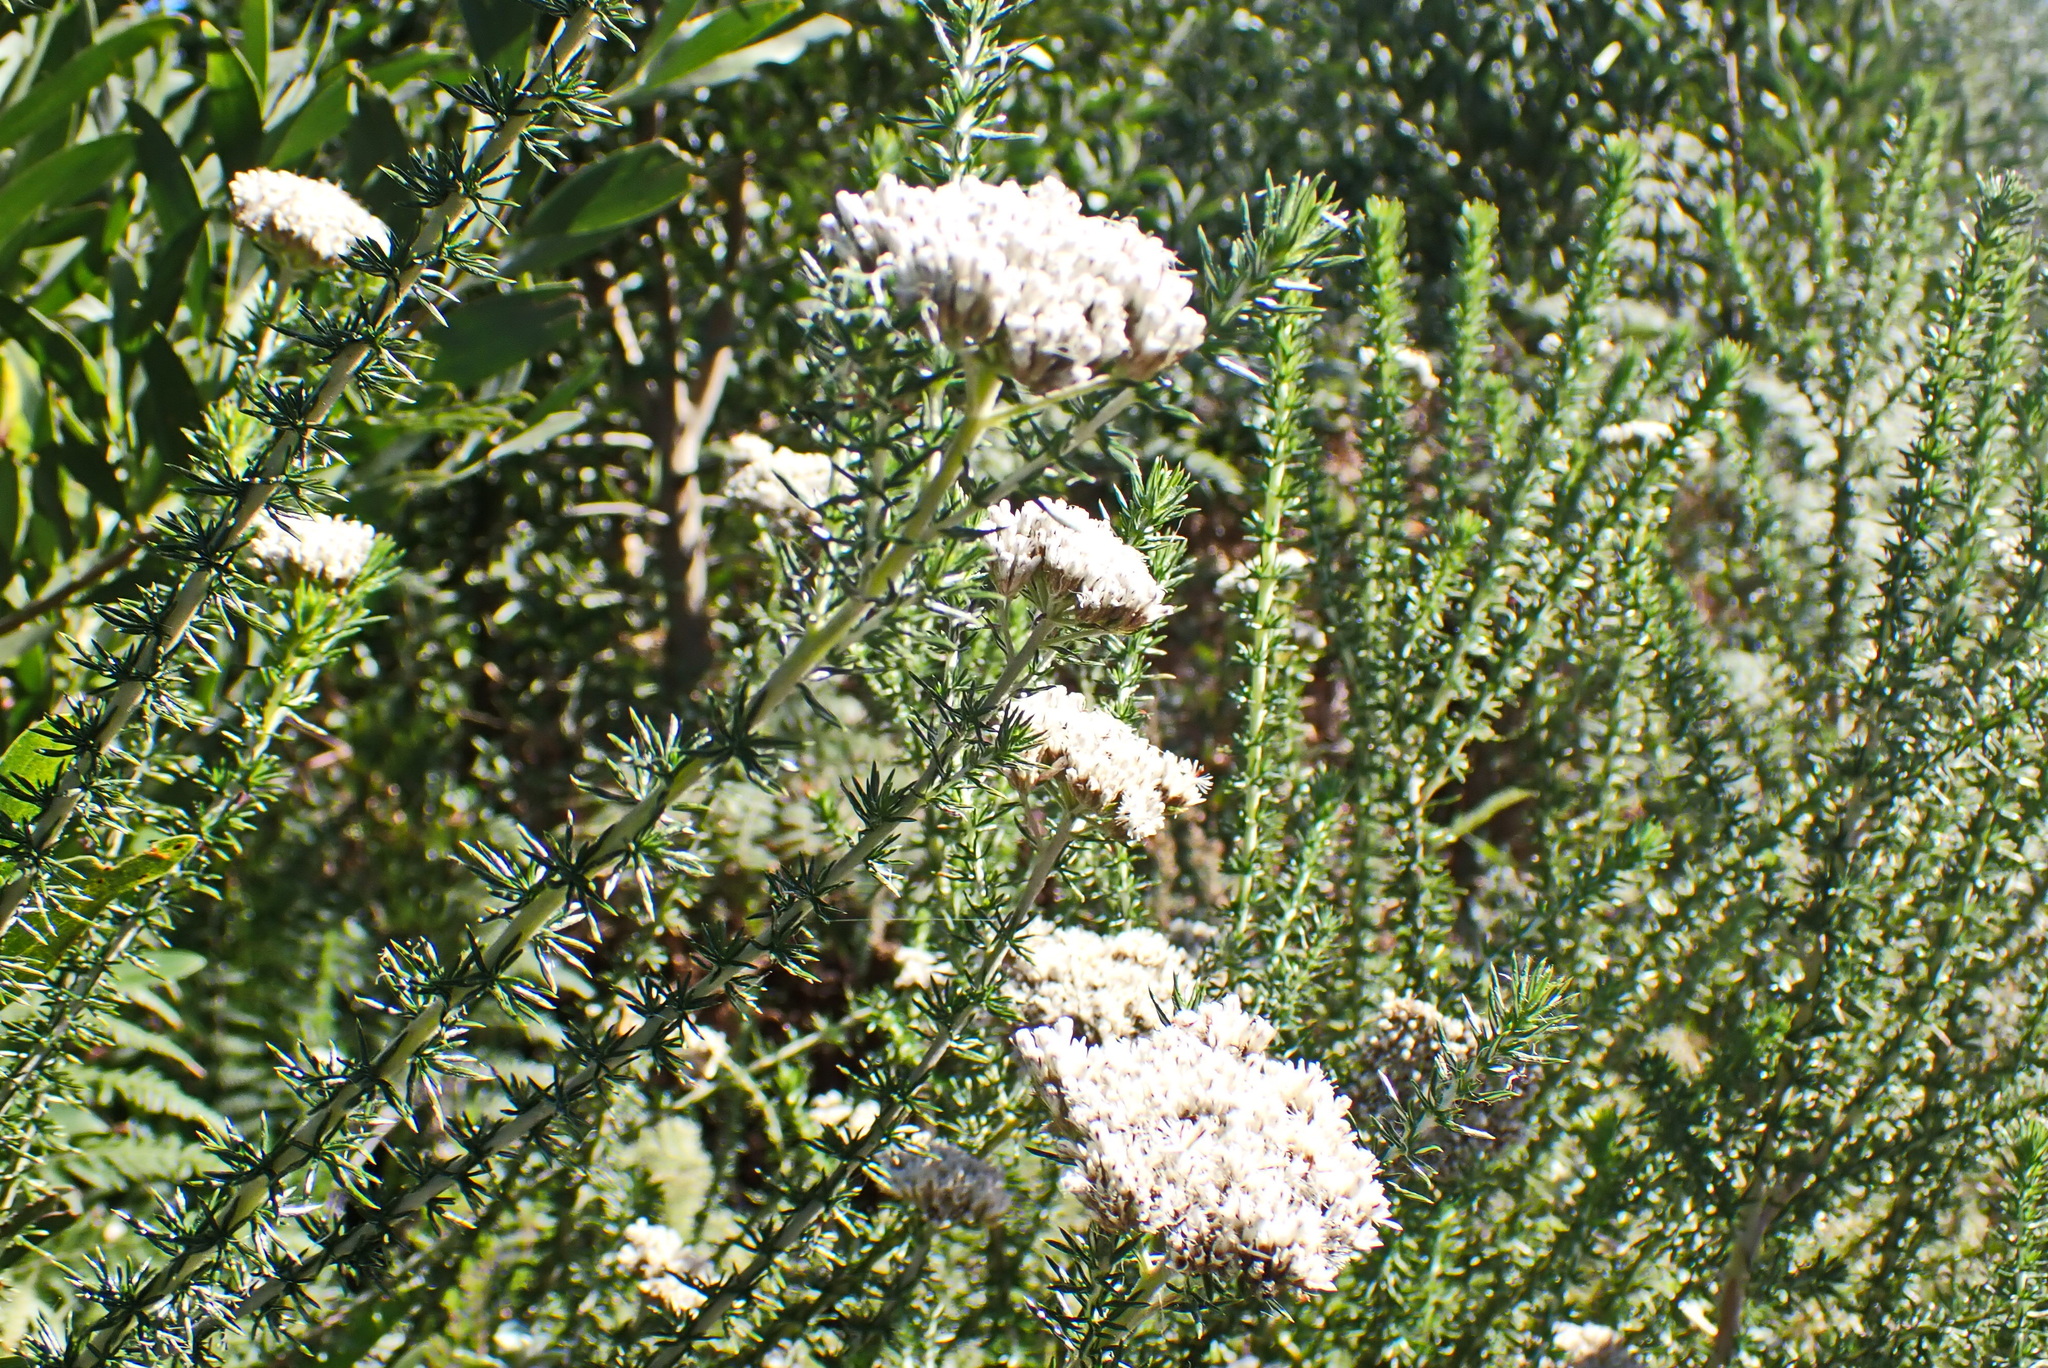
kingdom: Plantae
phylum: Tracheophyta
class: Magnoliopsida
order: Asterales
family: Asteraceae
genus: Metalasia
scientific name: Metalasia trivialis
